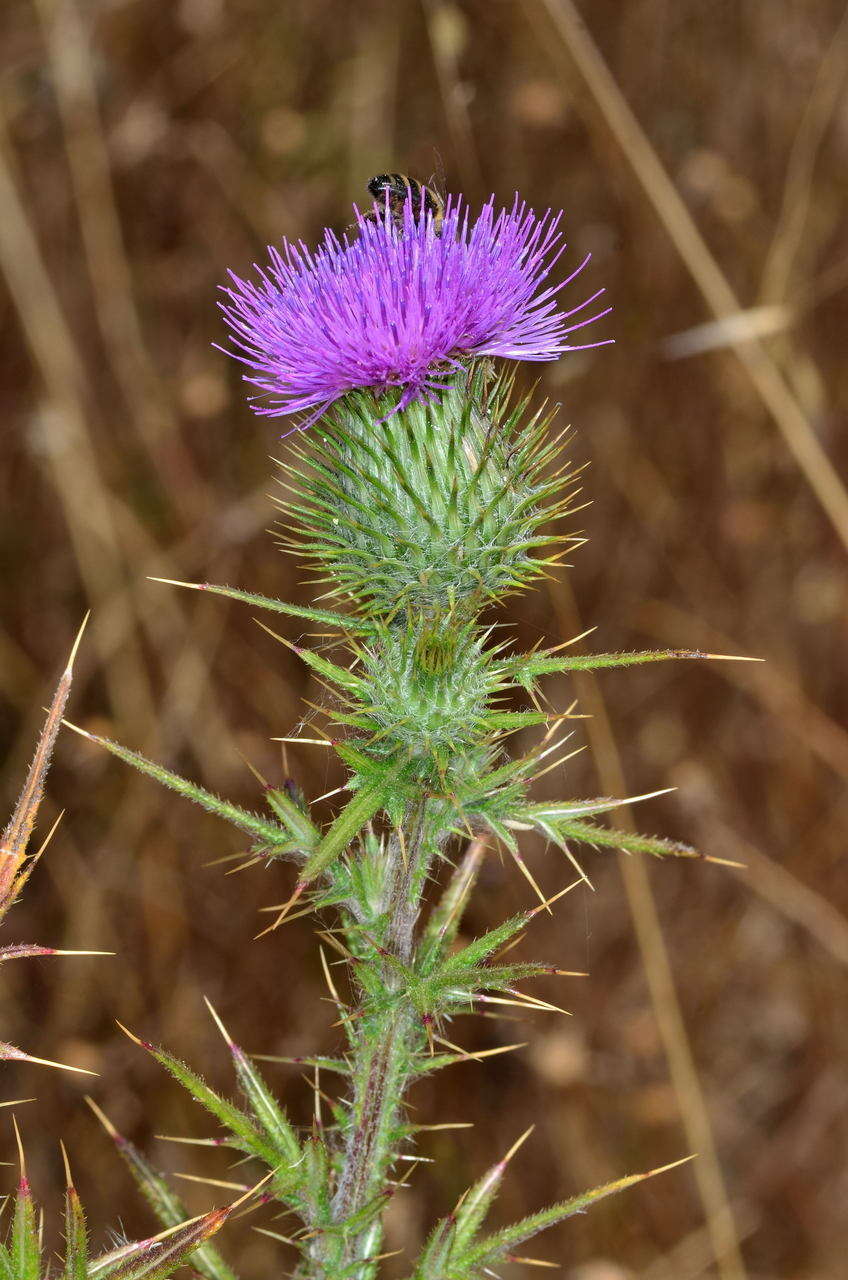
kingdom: Plantae
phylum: Tracheophyta
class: Magnoliopsida
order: Asterales
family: Asteraceae
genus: Cirsium
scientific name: Cirsium vulgare
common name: Bull thistle
